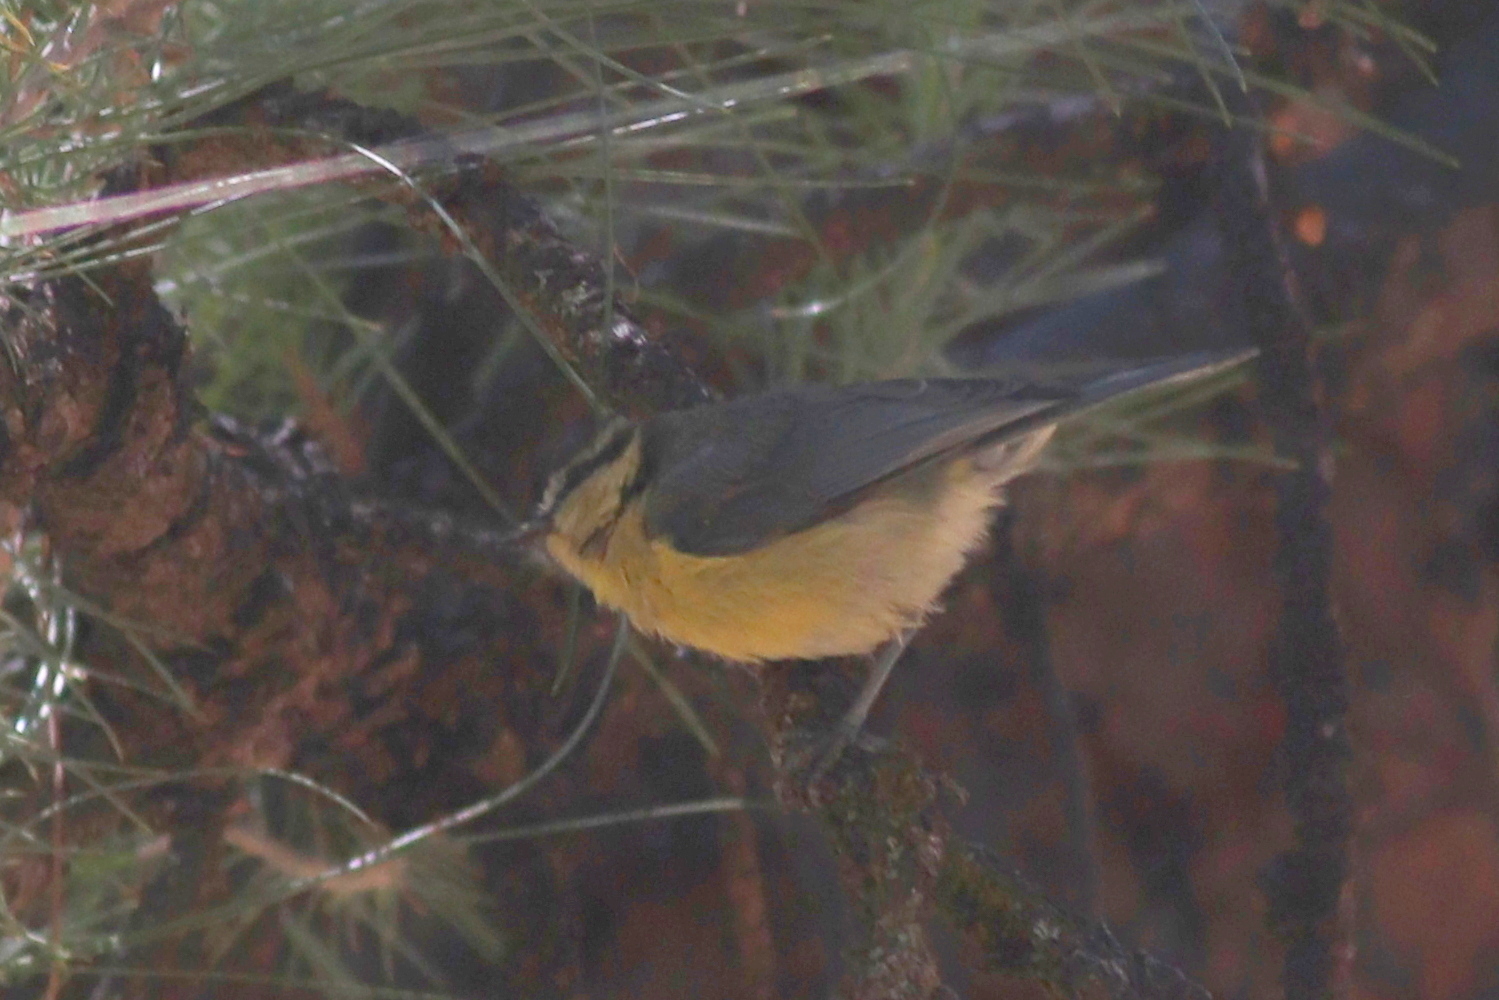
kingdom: Animalia
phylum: Chordata
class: Aves
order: Passeriformes
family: Paridae
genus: Cyanistes
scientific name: Cyanistes teneriffae
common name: African blue tit
